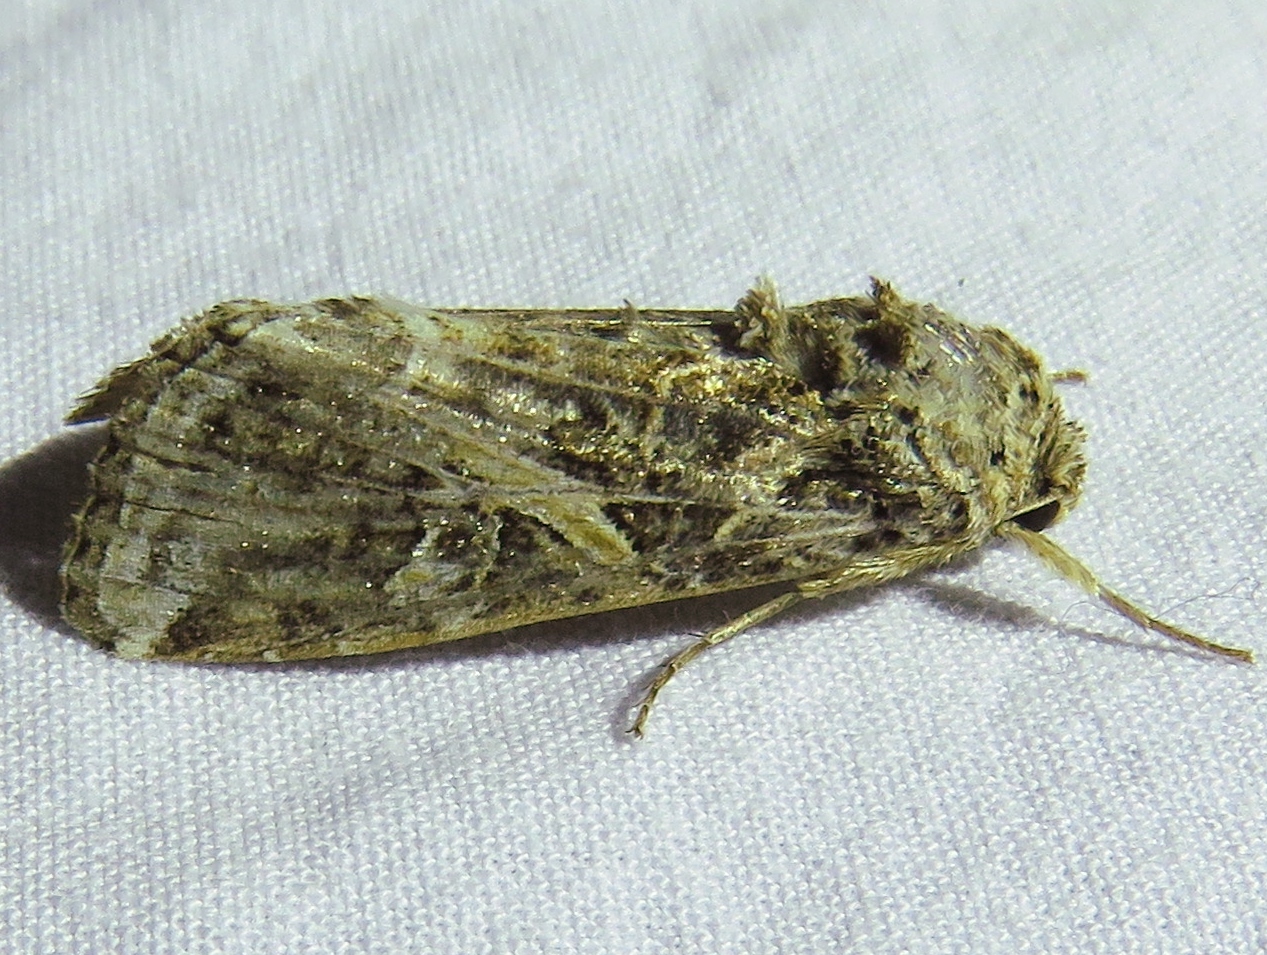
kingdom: Animalia
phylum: Arthropoda
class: Insecta
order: Lepidoptera
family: Noctuidae
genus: Spodoptera
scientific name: Spodoptera ornithogalli
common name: Yellow-striped armyworm
